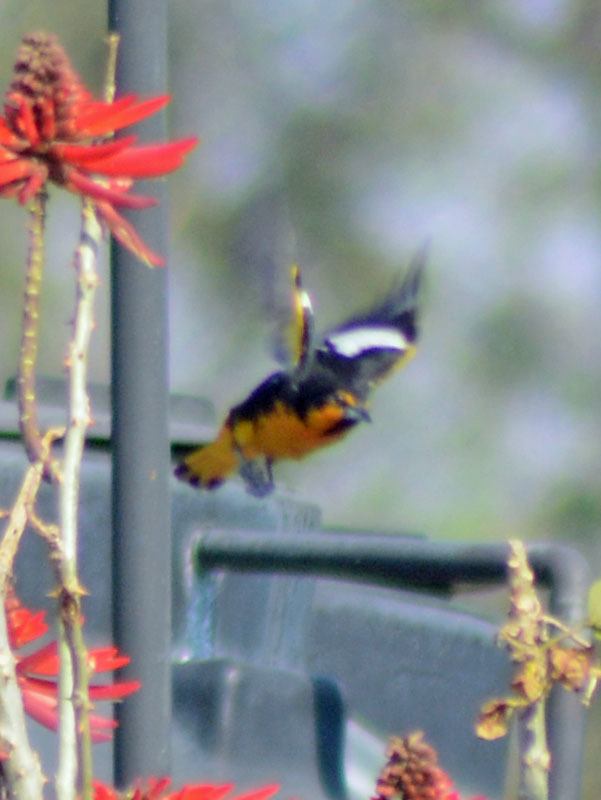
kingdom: Animalia
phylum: Chordata
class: Aves
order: Passeriformes
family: Icteridae
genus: Icterus
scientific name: Icterus abeillei
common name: Black-backed oriole
